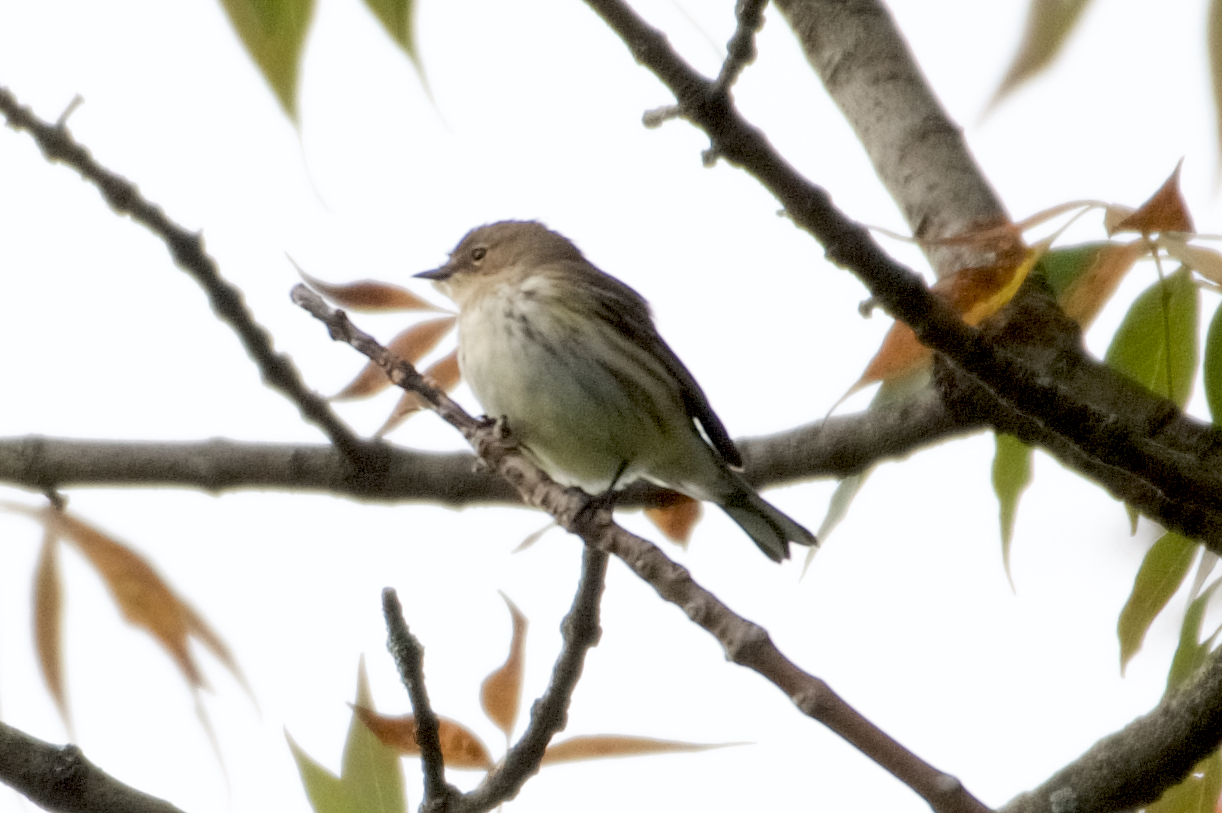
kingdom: Animalia
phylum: Chordata
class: Aves
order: Passeriformes
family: Parulidae
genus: Setophaga
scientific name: Setophaga coronata
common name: Myrtle warbler
